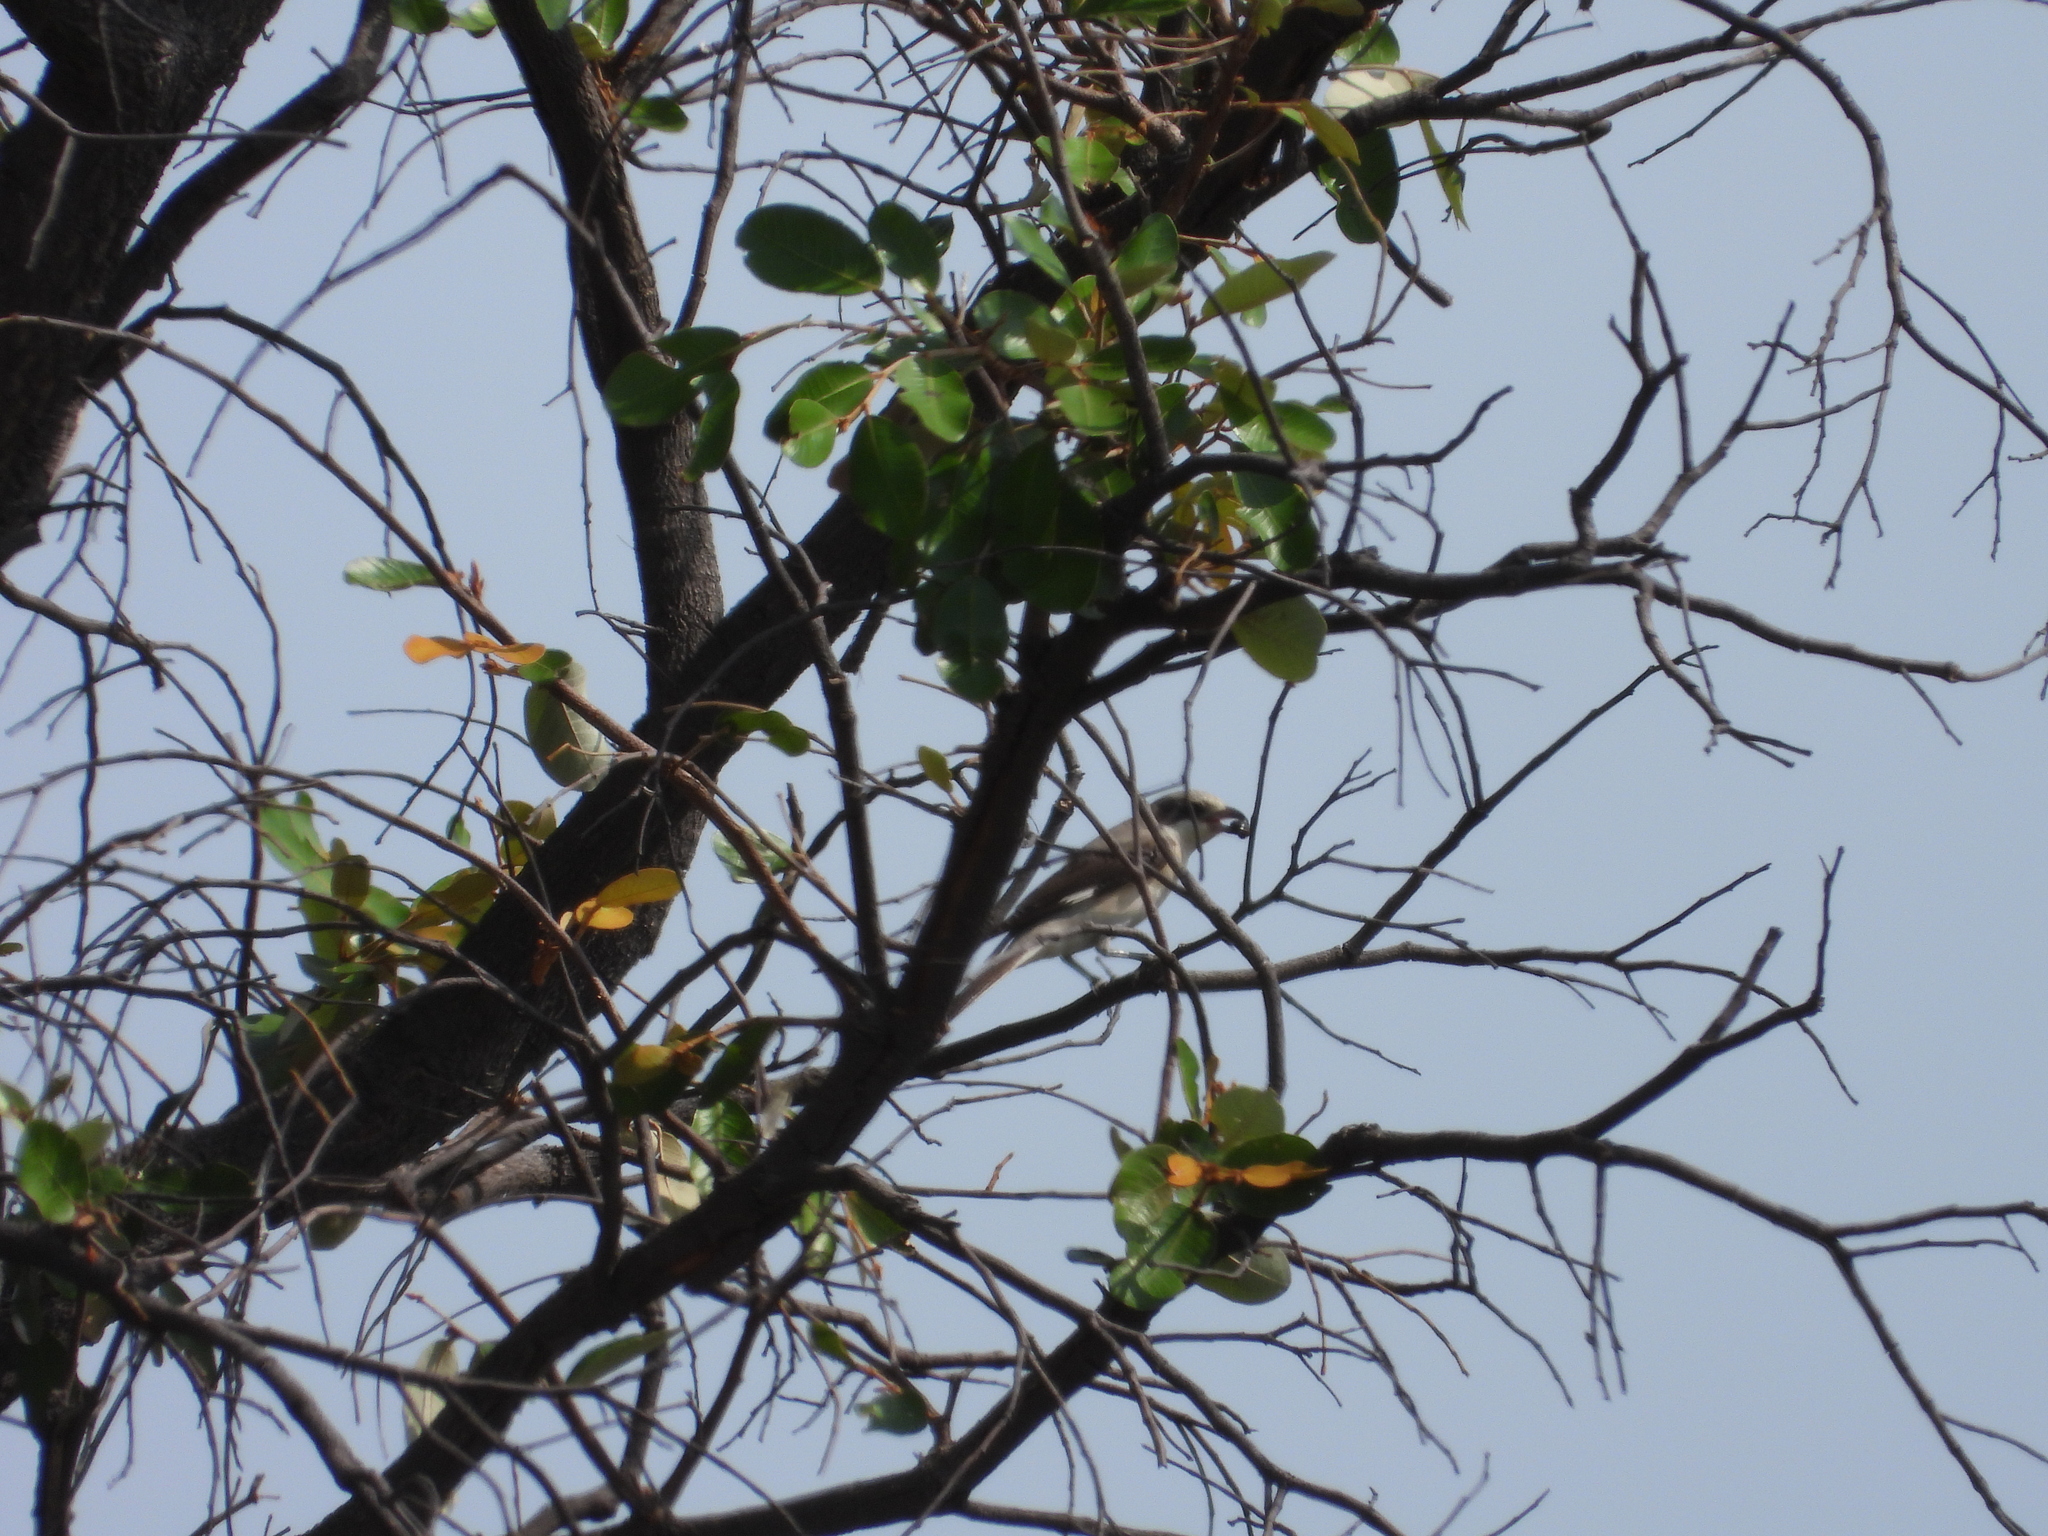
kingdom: Animalia
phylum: Chordata
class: Aves
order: Passeriformes
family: Laniidae
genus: Lanius
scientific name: Lanius minor
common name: Lesser grey shrike
